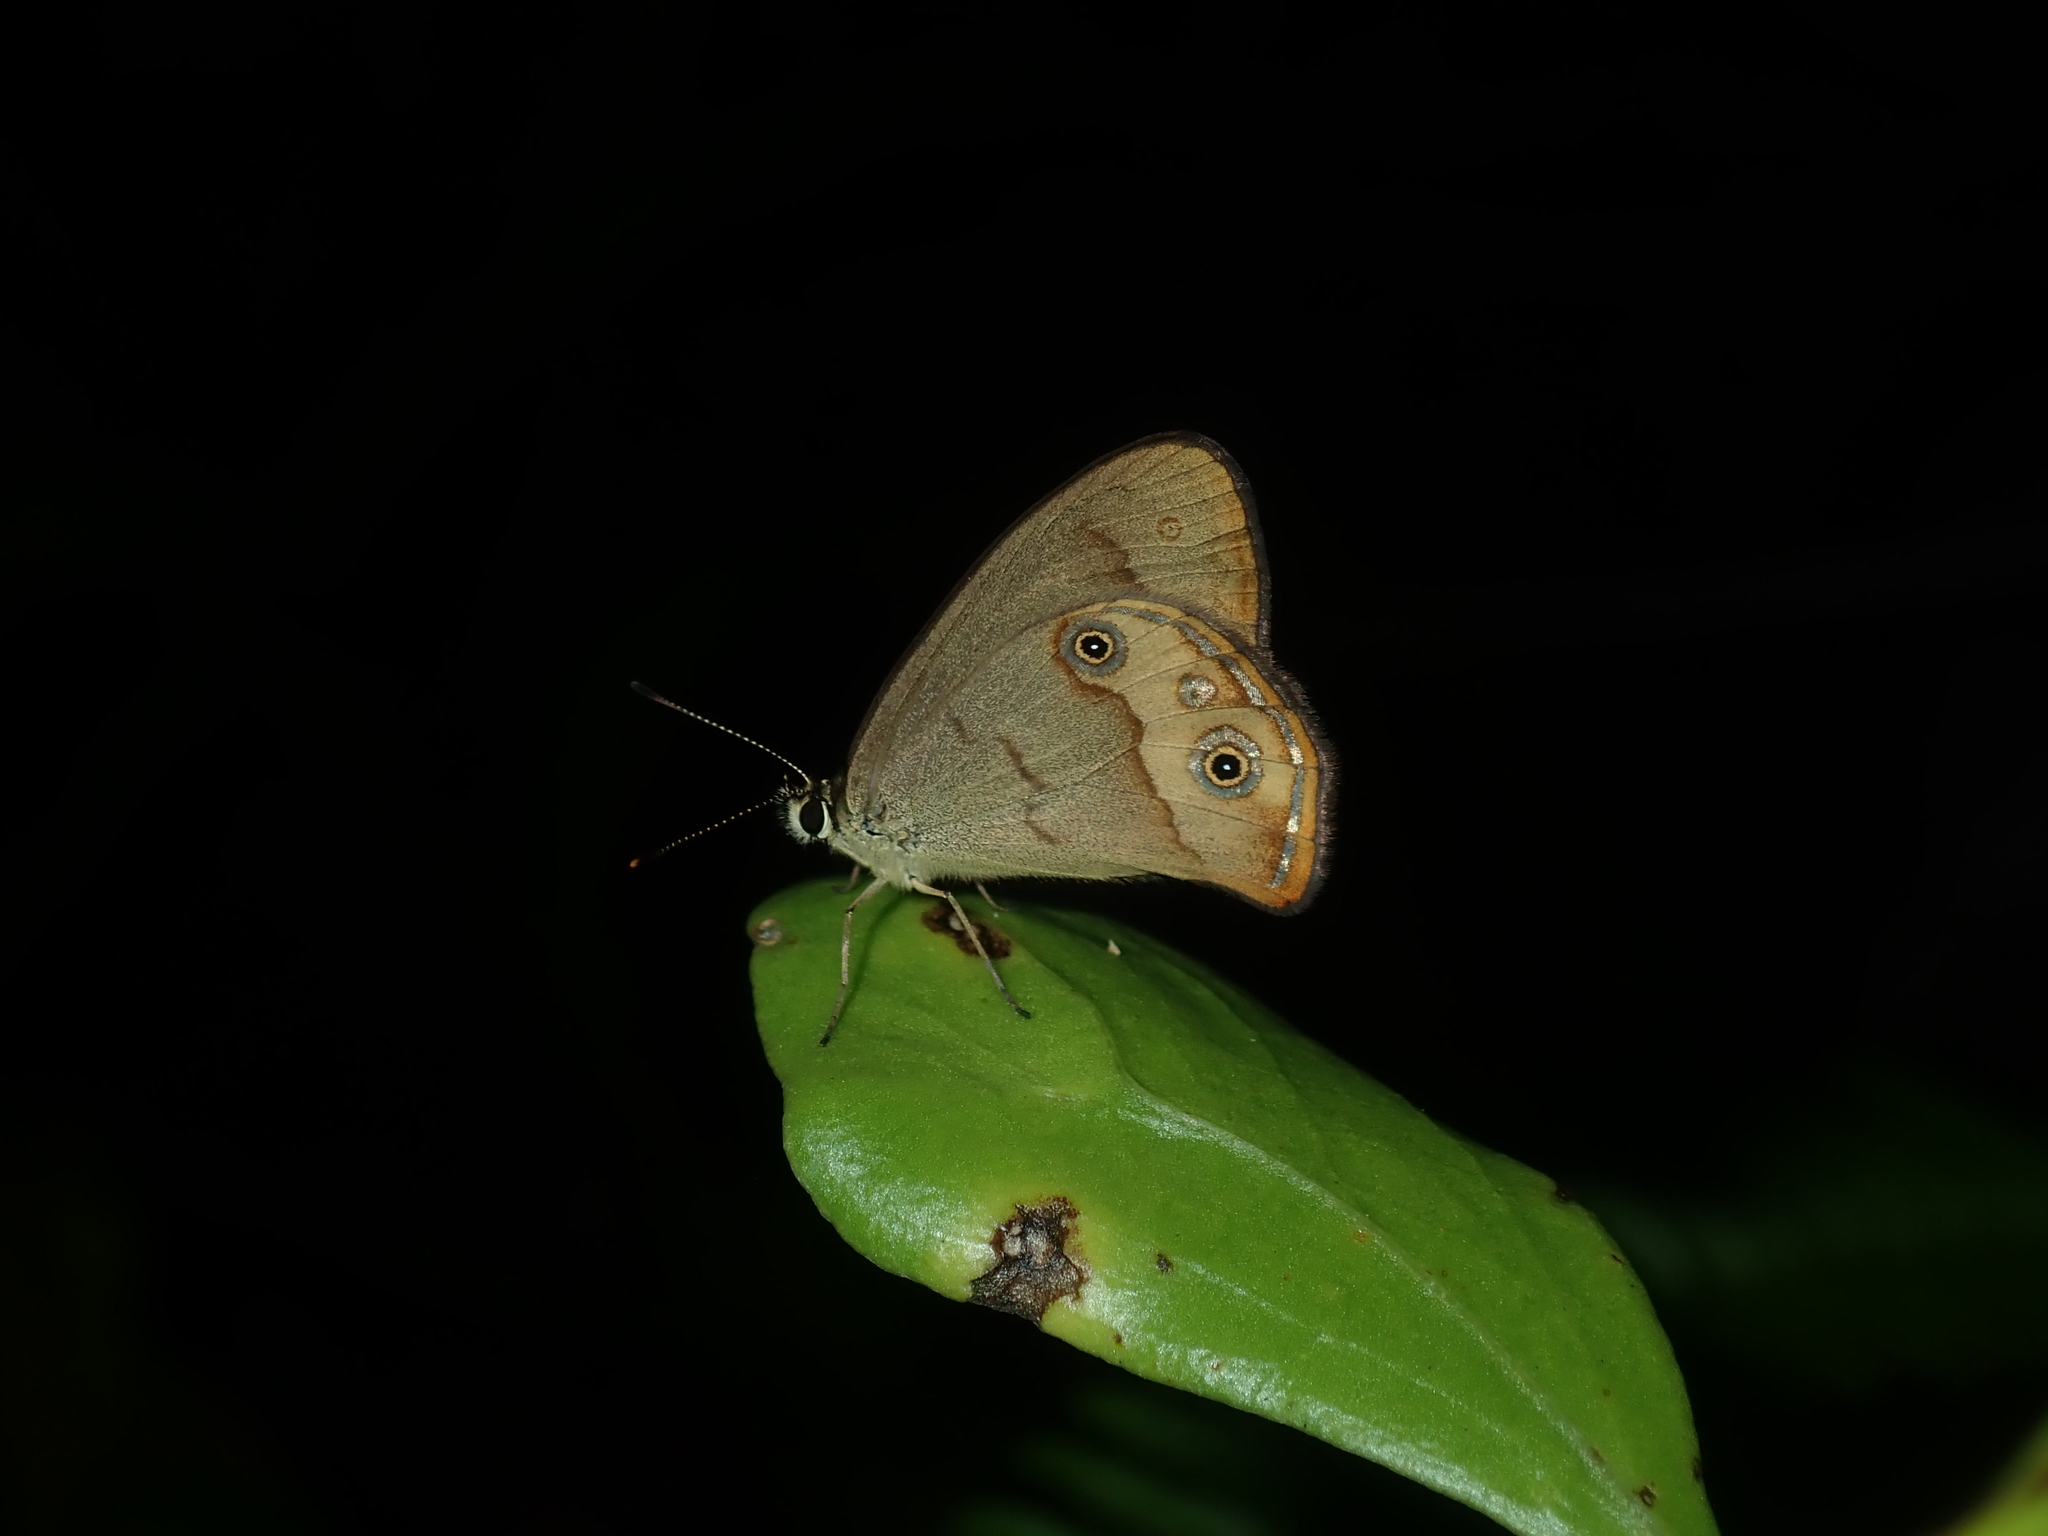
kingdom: Animalia
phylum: Arthropoda
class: Insecta
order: Lepidoptera
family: Nymphalidae
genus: Hypocysta
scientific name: Hypocysta metirius
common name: Brown ringlet
